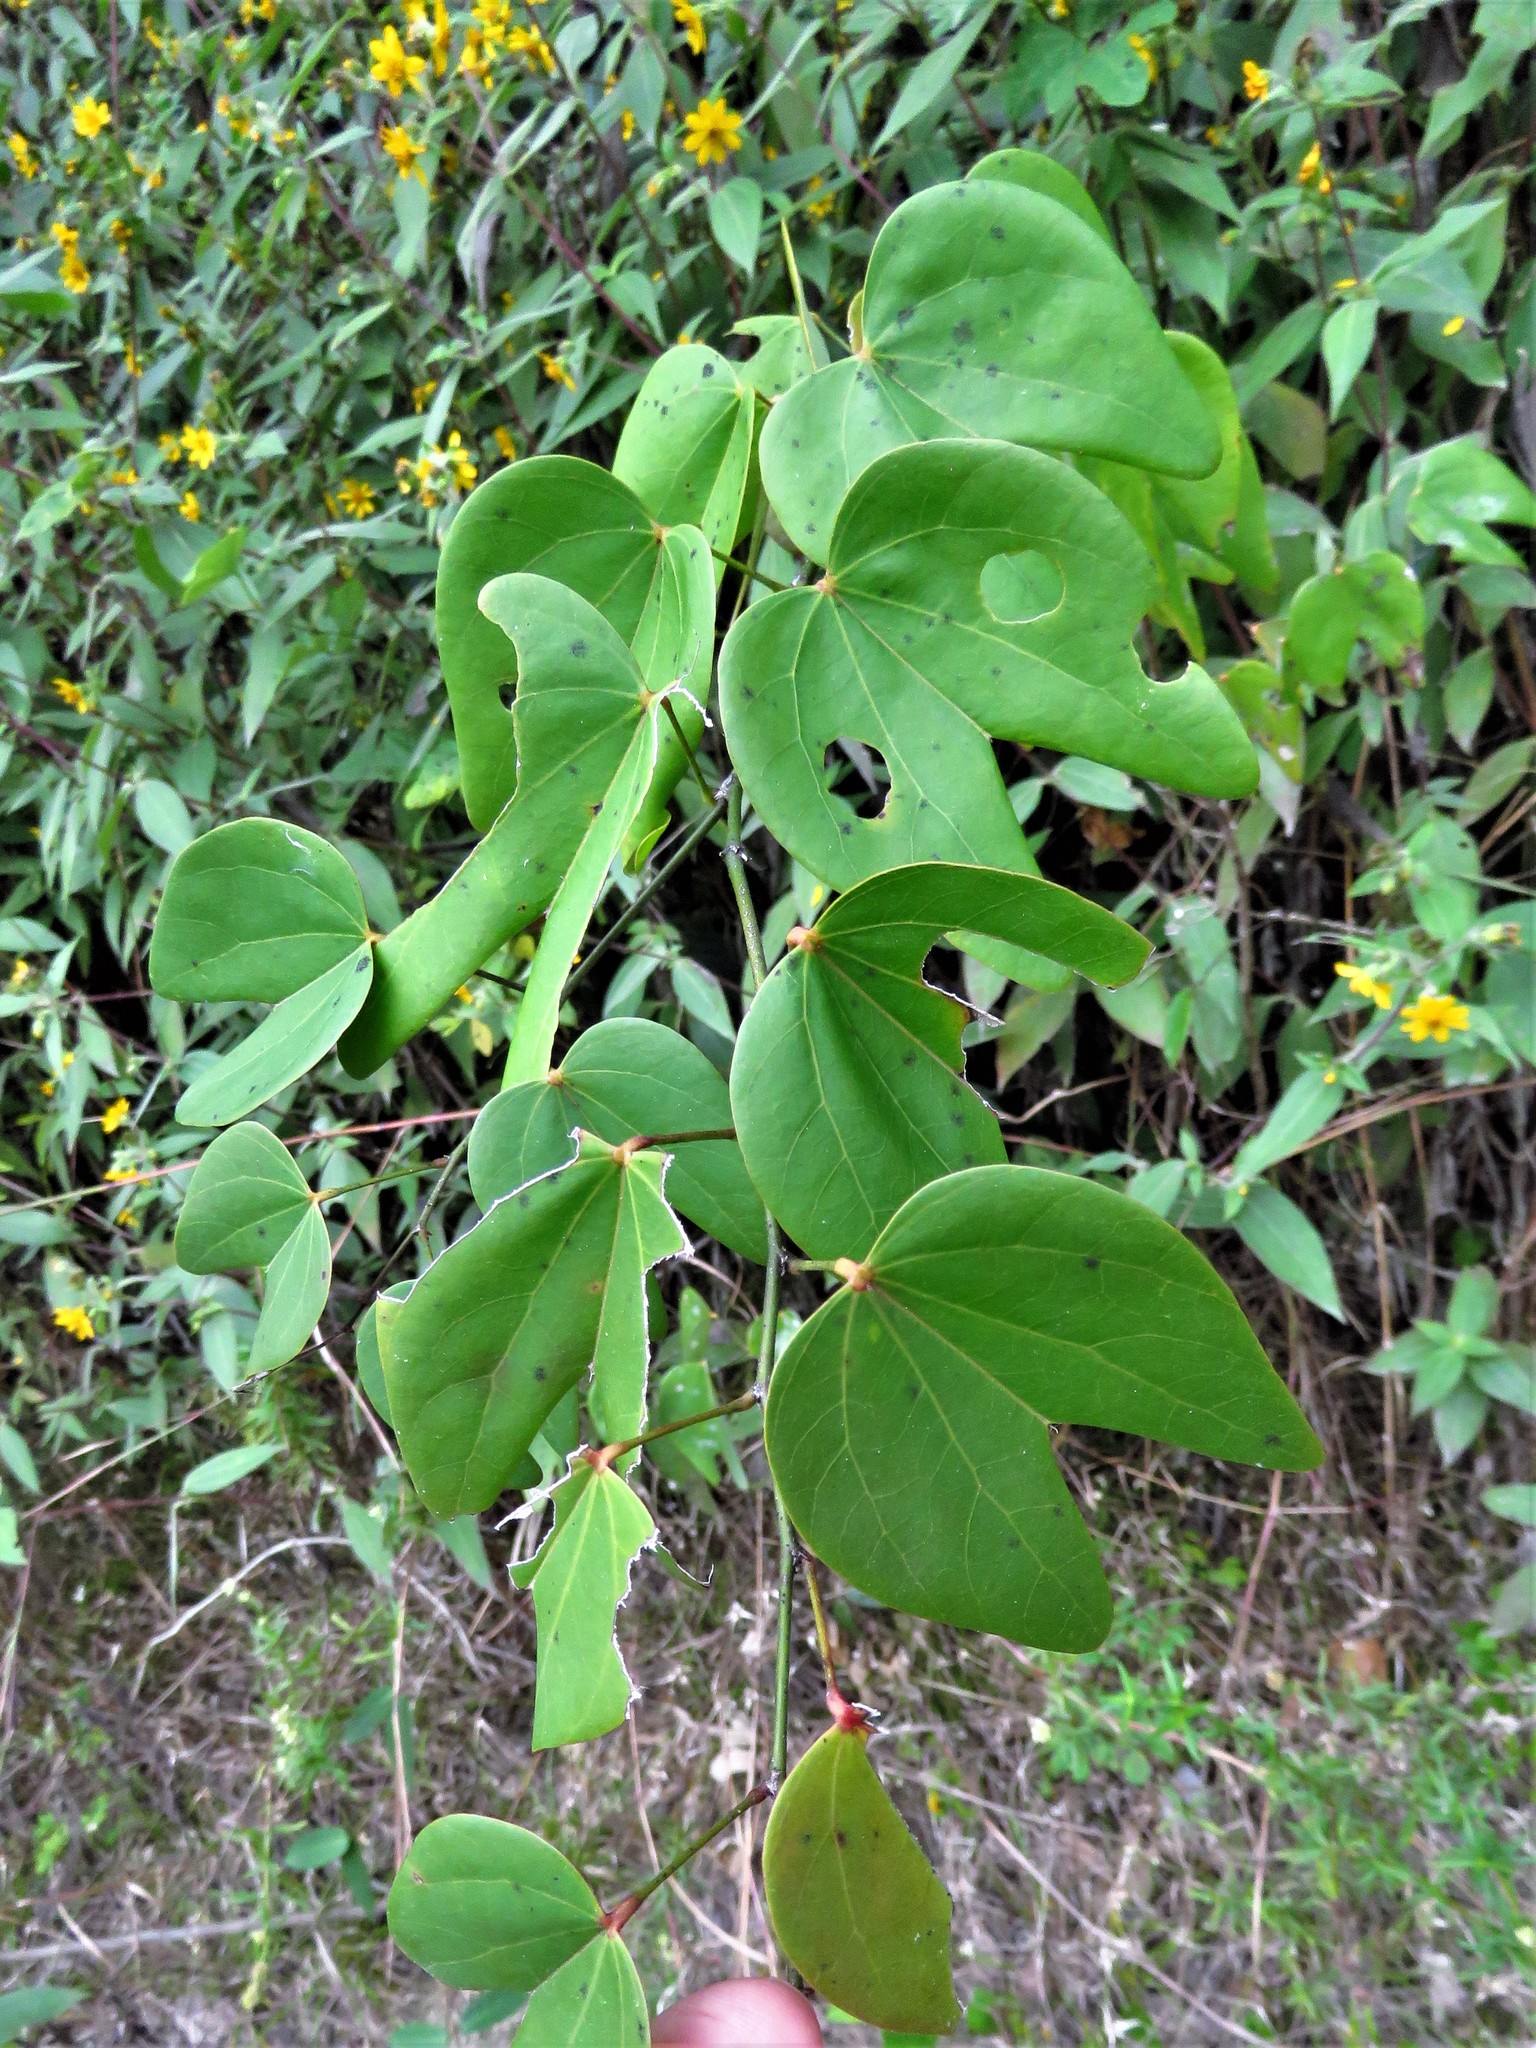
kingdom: Plantae
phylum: Tracheophyta
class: Magnoliopsida
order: Fabales
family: Fabaceae
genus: Bauhinia
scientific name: Bauhinia erythrocalyx
